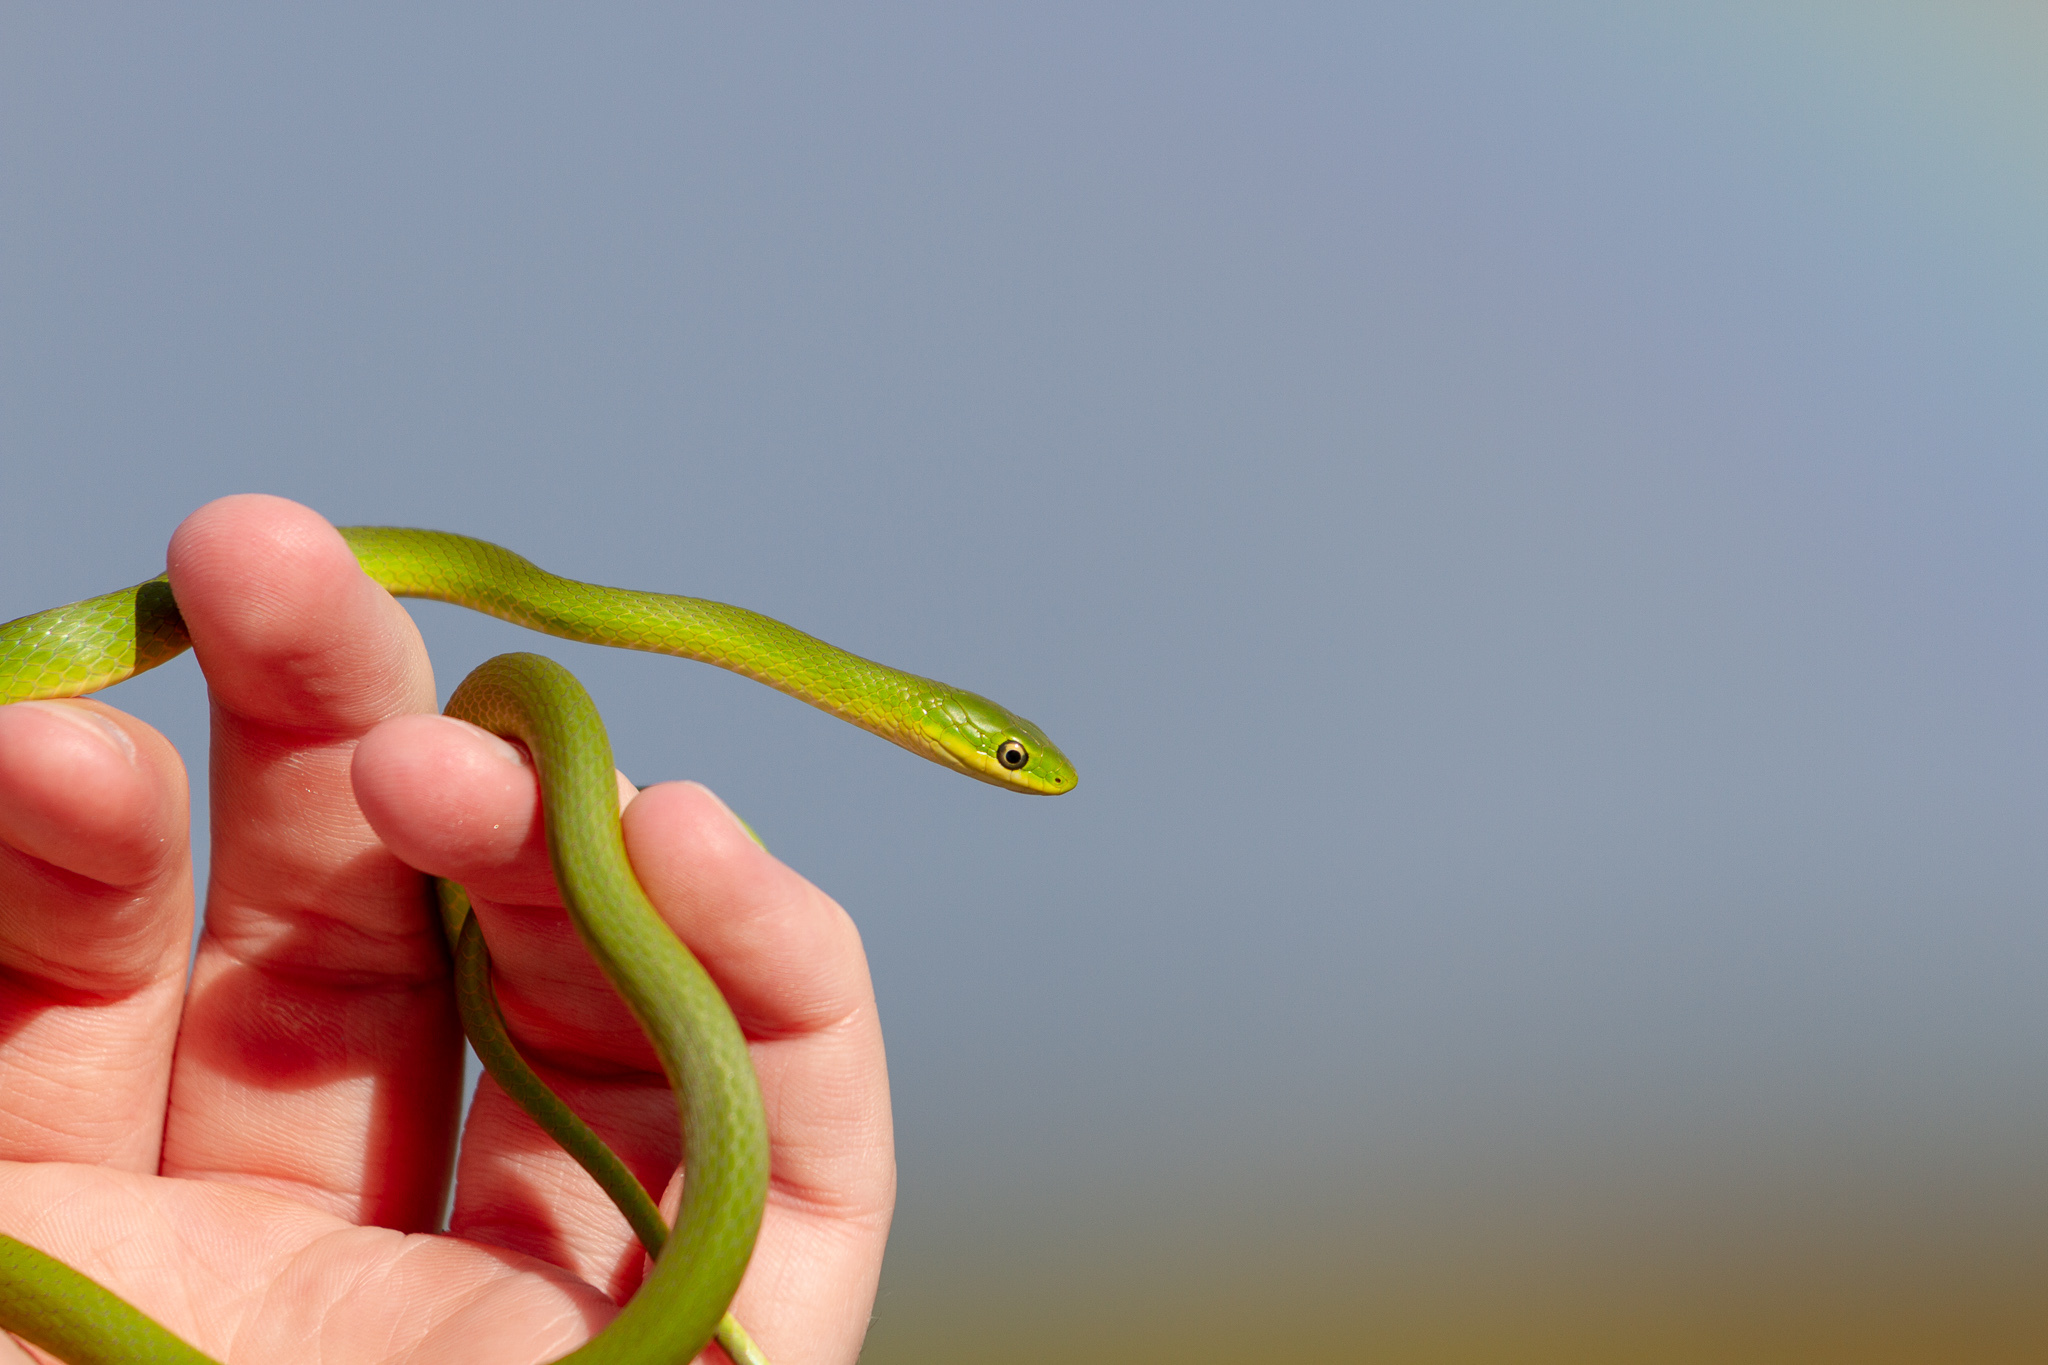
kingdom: Animalia
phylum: Chordata
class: Squamata
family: Colubridae
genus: Opheodrys
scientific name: Opheodrys aestivus
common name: Rough greensnake
